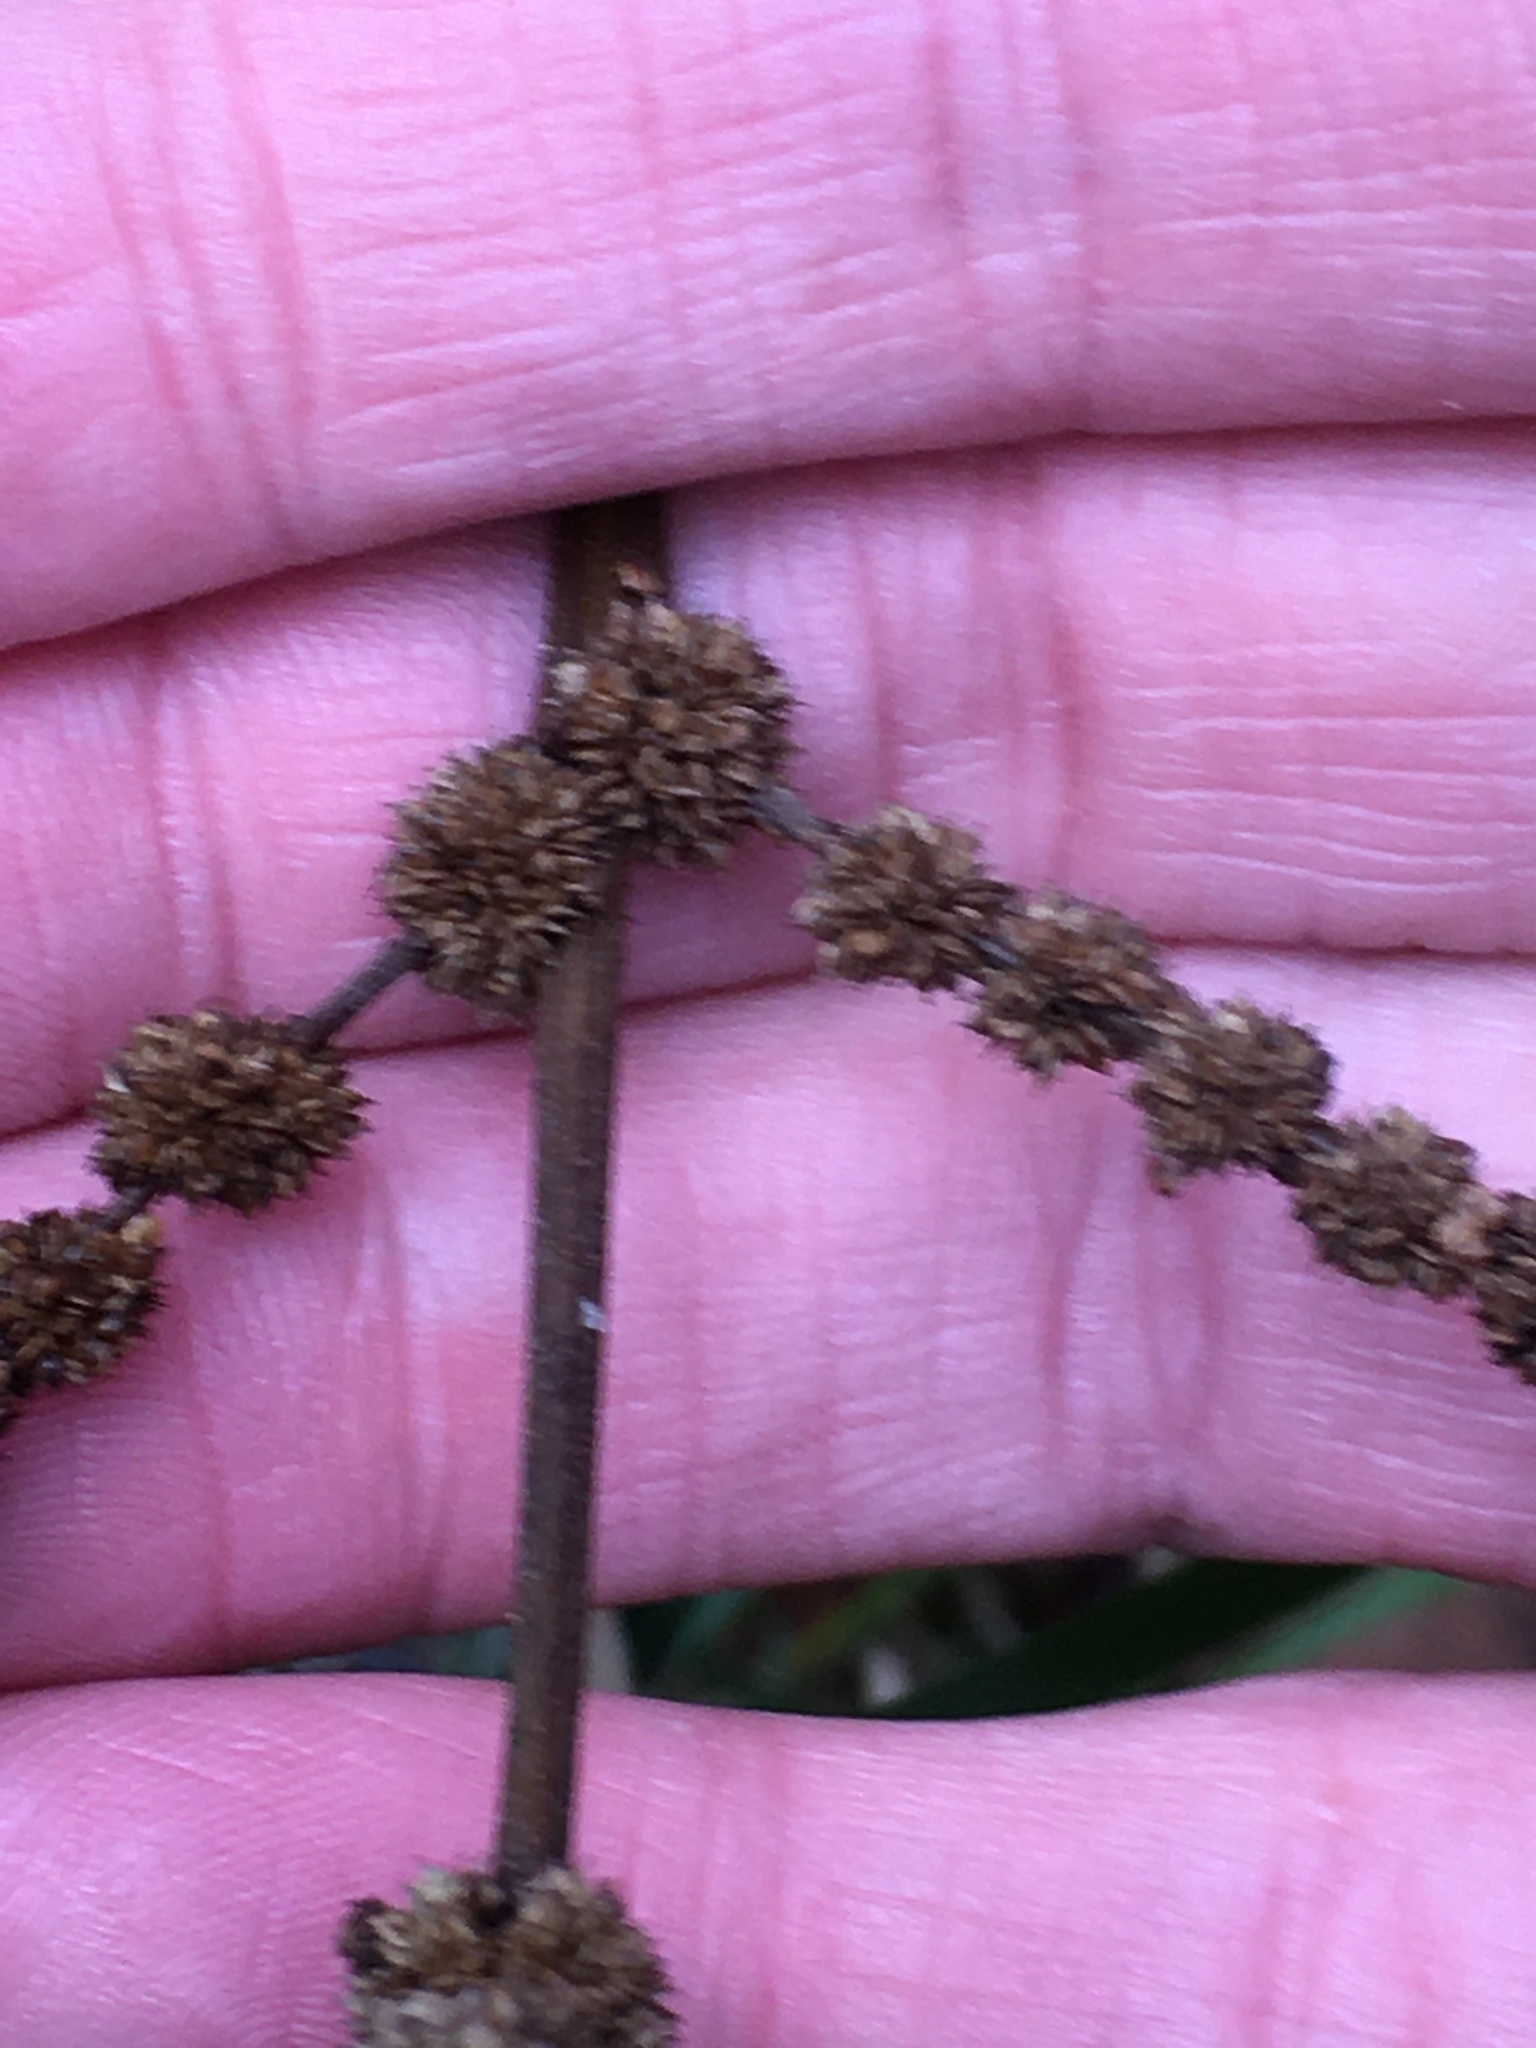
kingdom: Plantae
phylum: Tracheophyta
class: Magnoliopsida
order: Rosales
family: Urticaceae
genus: Boehmeria
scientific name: Boehmeria cylindrica
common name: Bog-hemp
